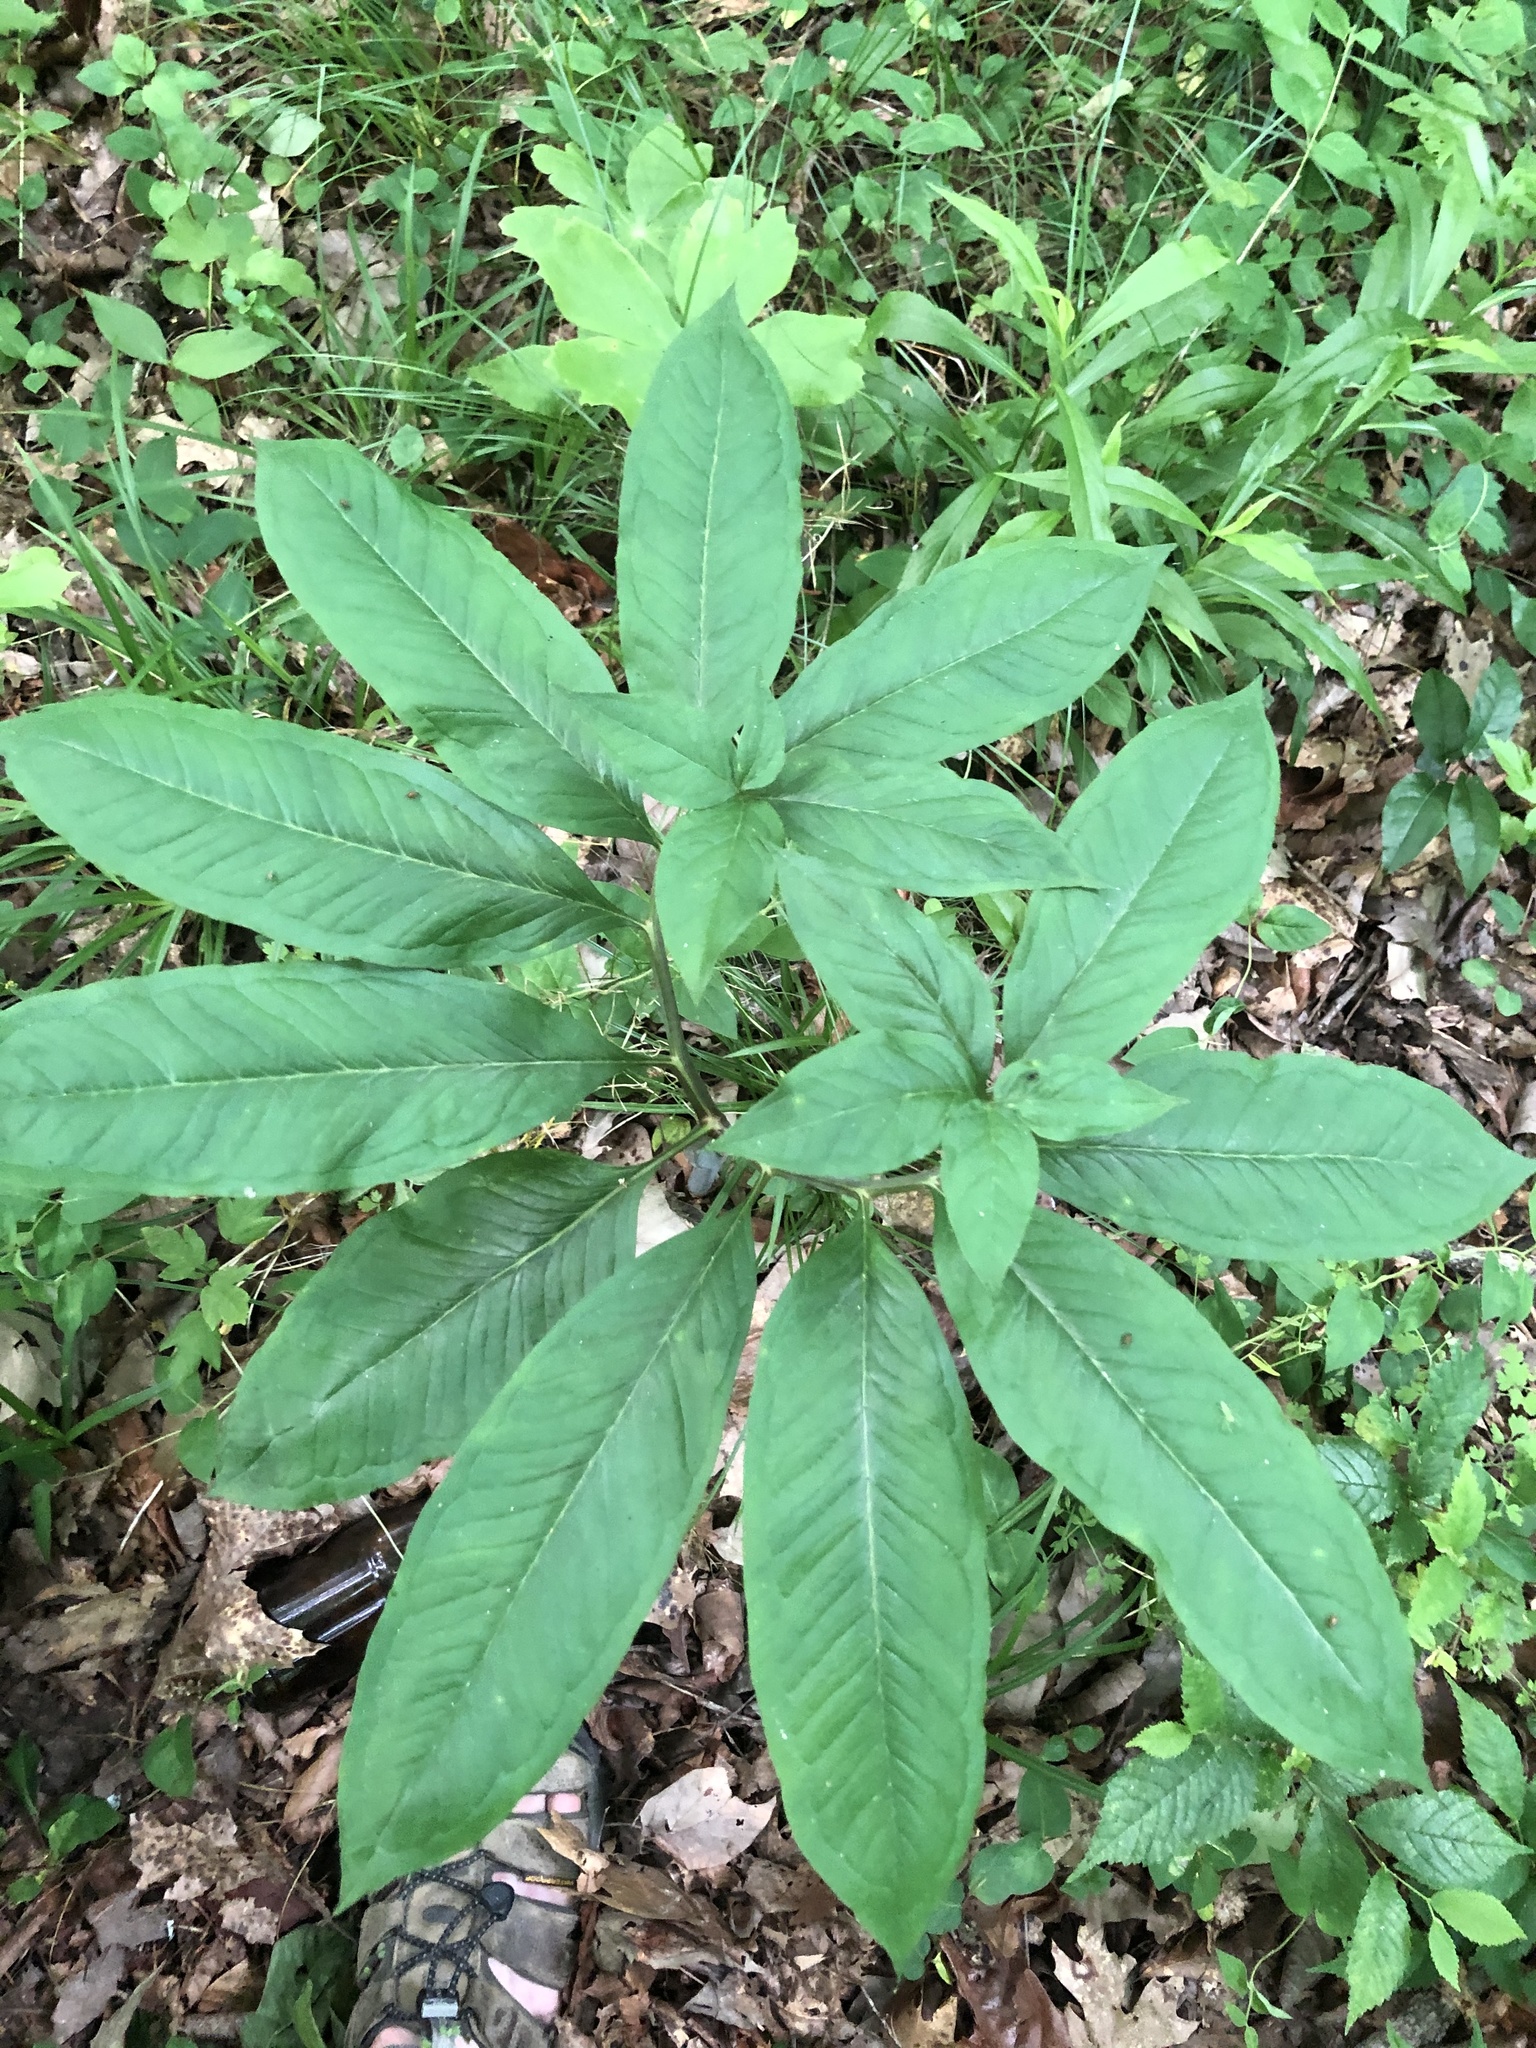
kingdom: Plantae
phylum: Tracheophyta
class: Liliopsida
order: Alismatales
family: Araceae
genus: Arisaema
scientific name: Arisaema dracontium
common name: Dragon-arum
